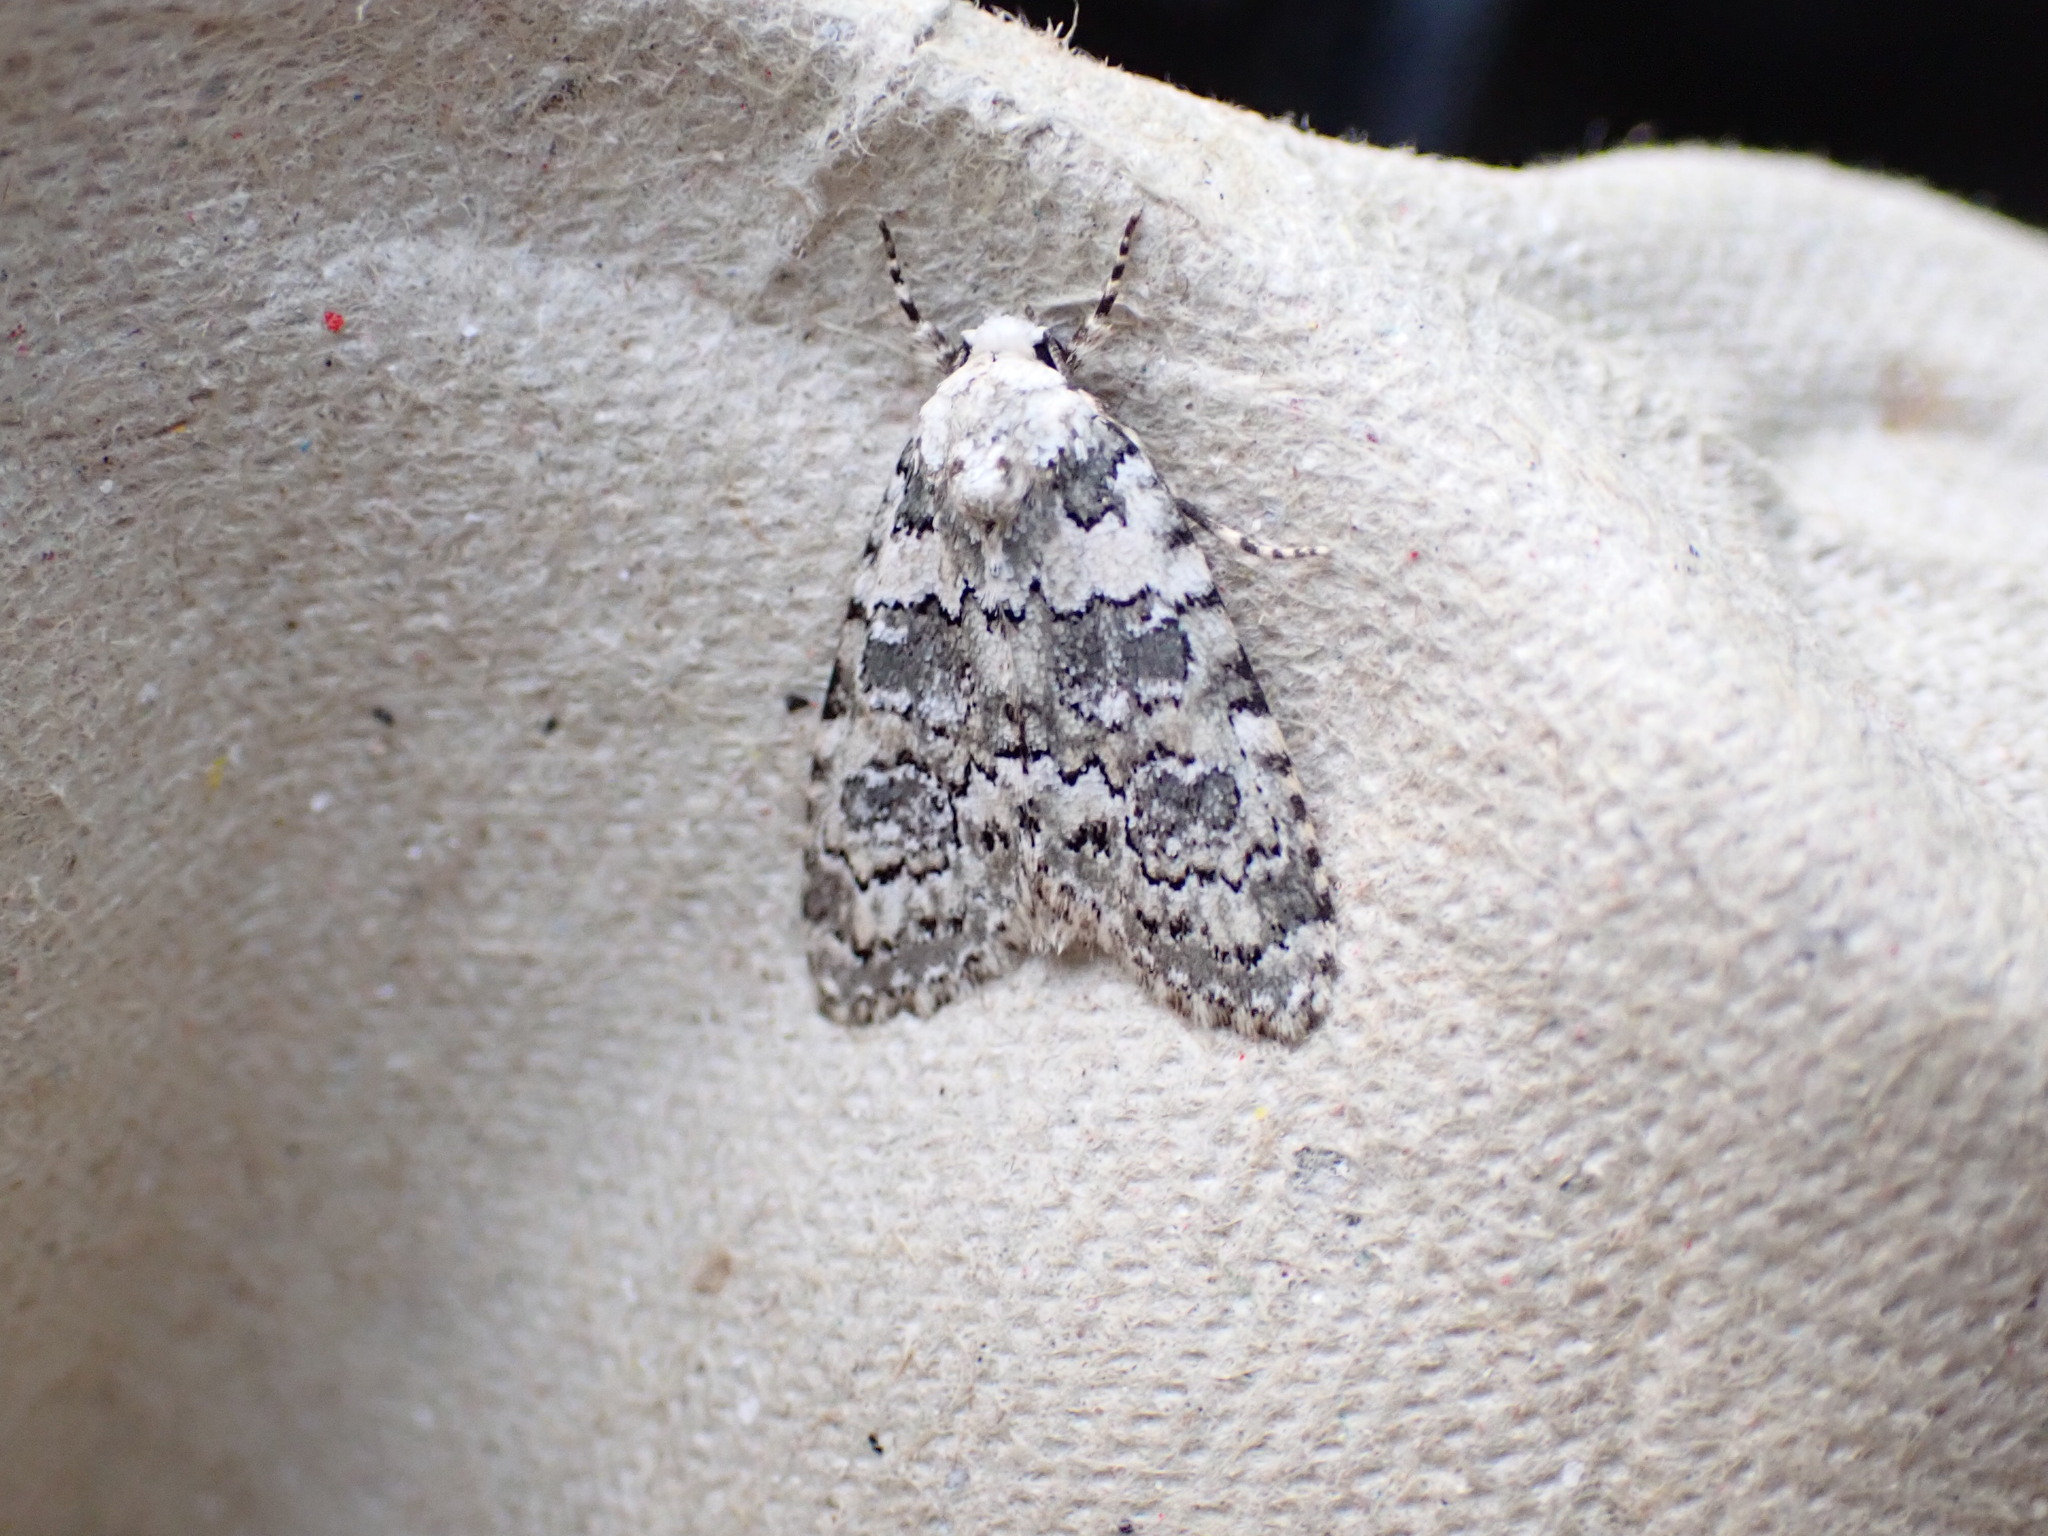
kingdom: Animalia
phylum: Arthropoda
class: Insecta
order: Lepidoptera
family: Noctuidae
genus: Bryophila
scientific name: Bryophila domestica
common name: Marbled beauty
